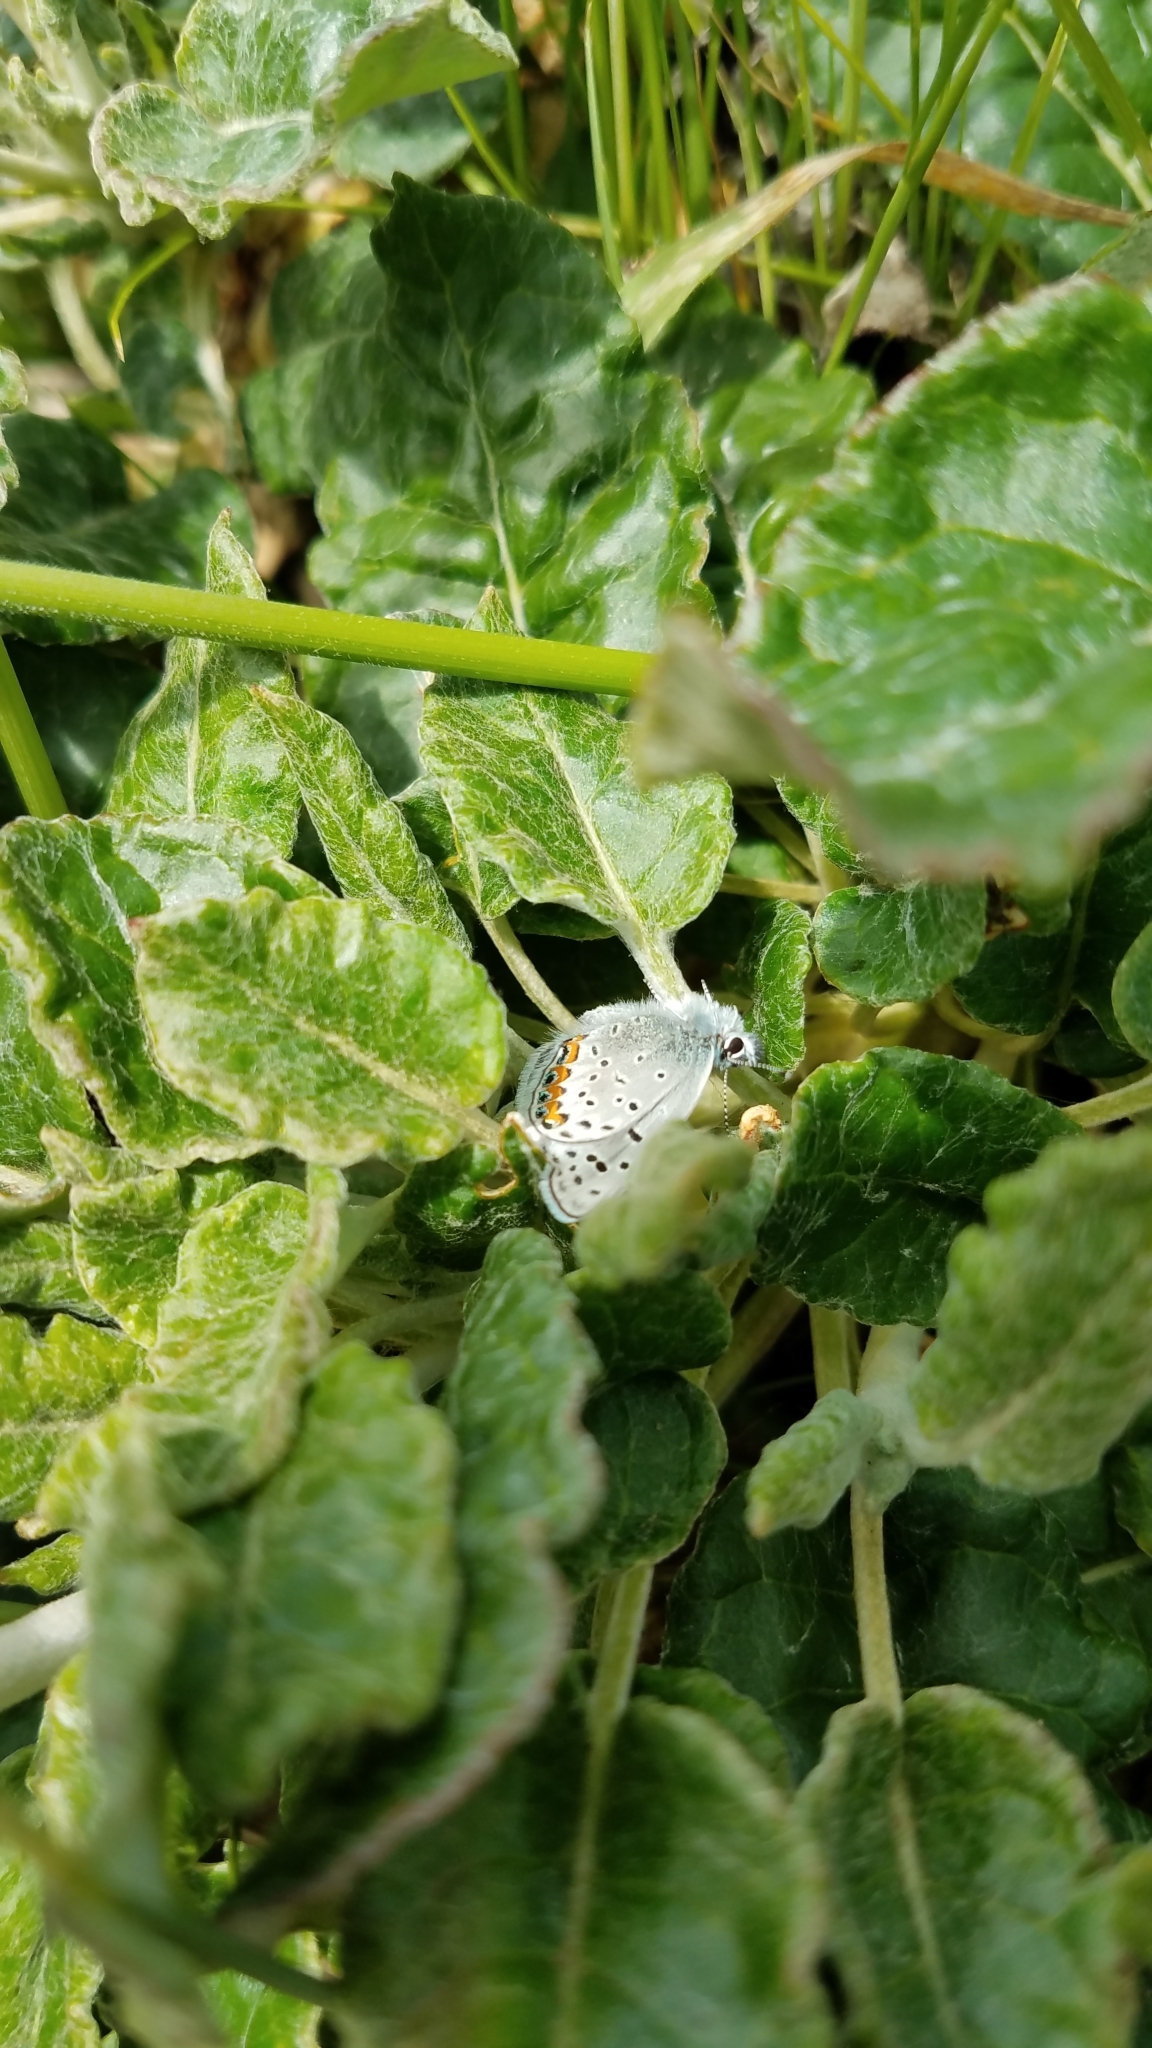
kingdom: Animalia
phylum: Arthropoda
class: Insecta
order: Lepidoptera
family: Lycaenidae
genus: Icaricia
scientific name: Icaricia acmon
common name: Acmon blue
